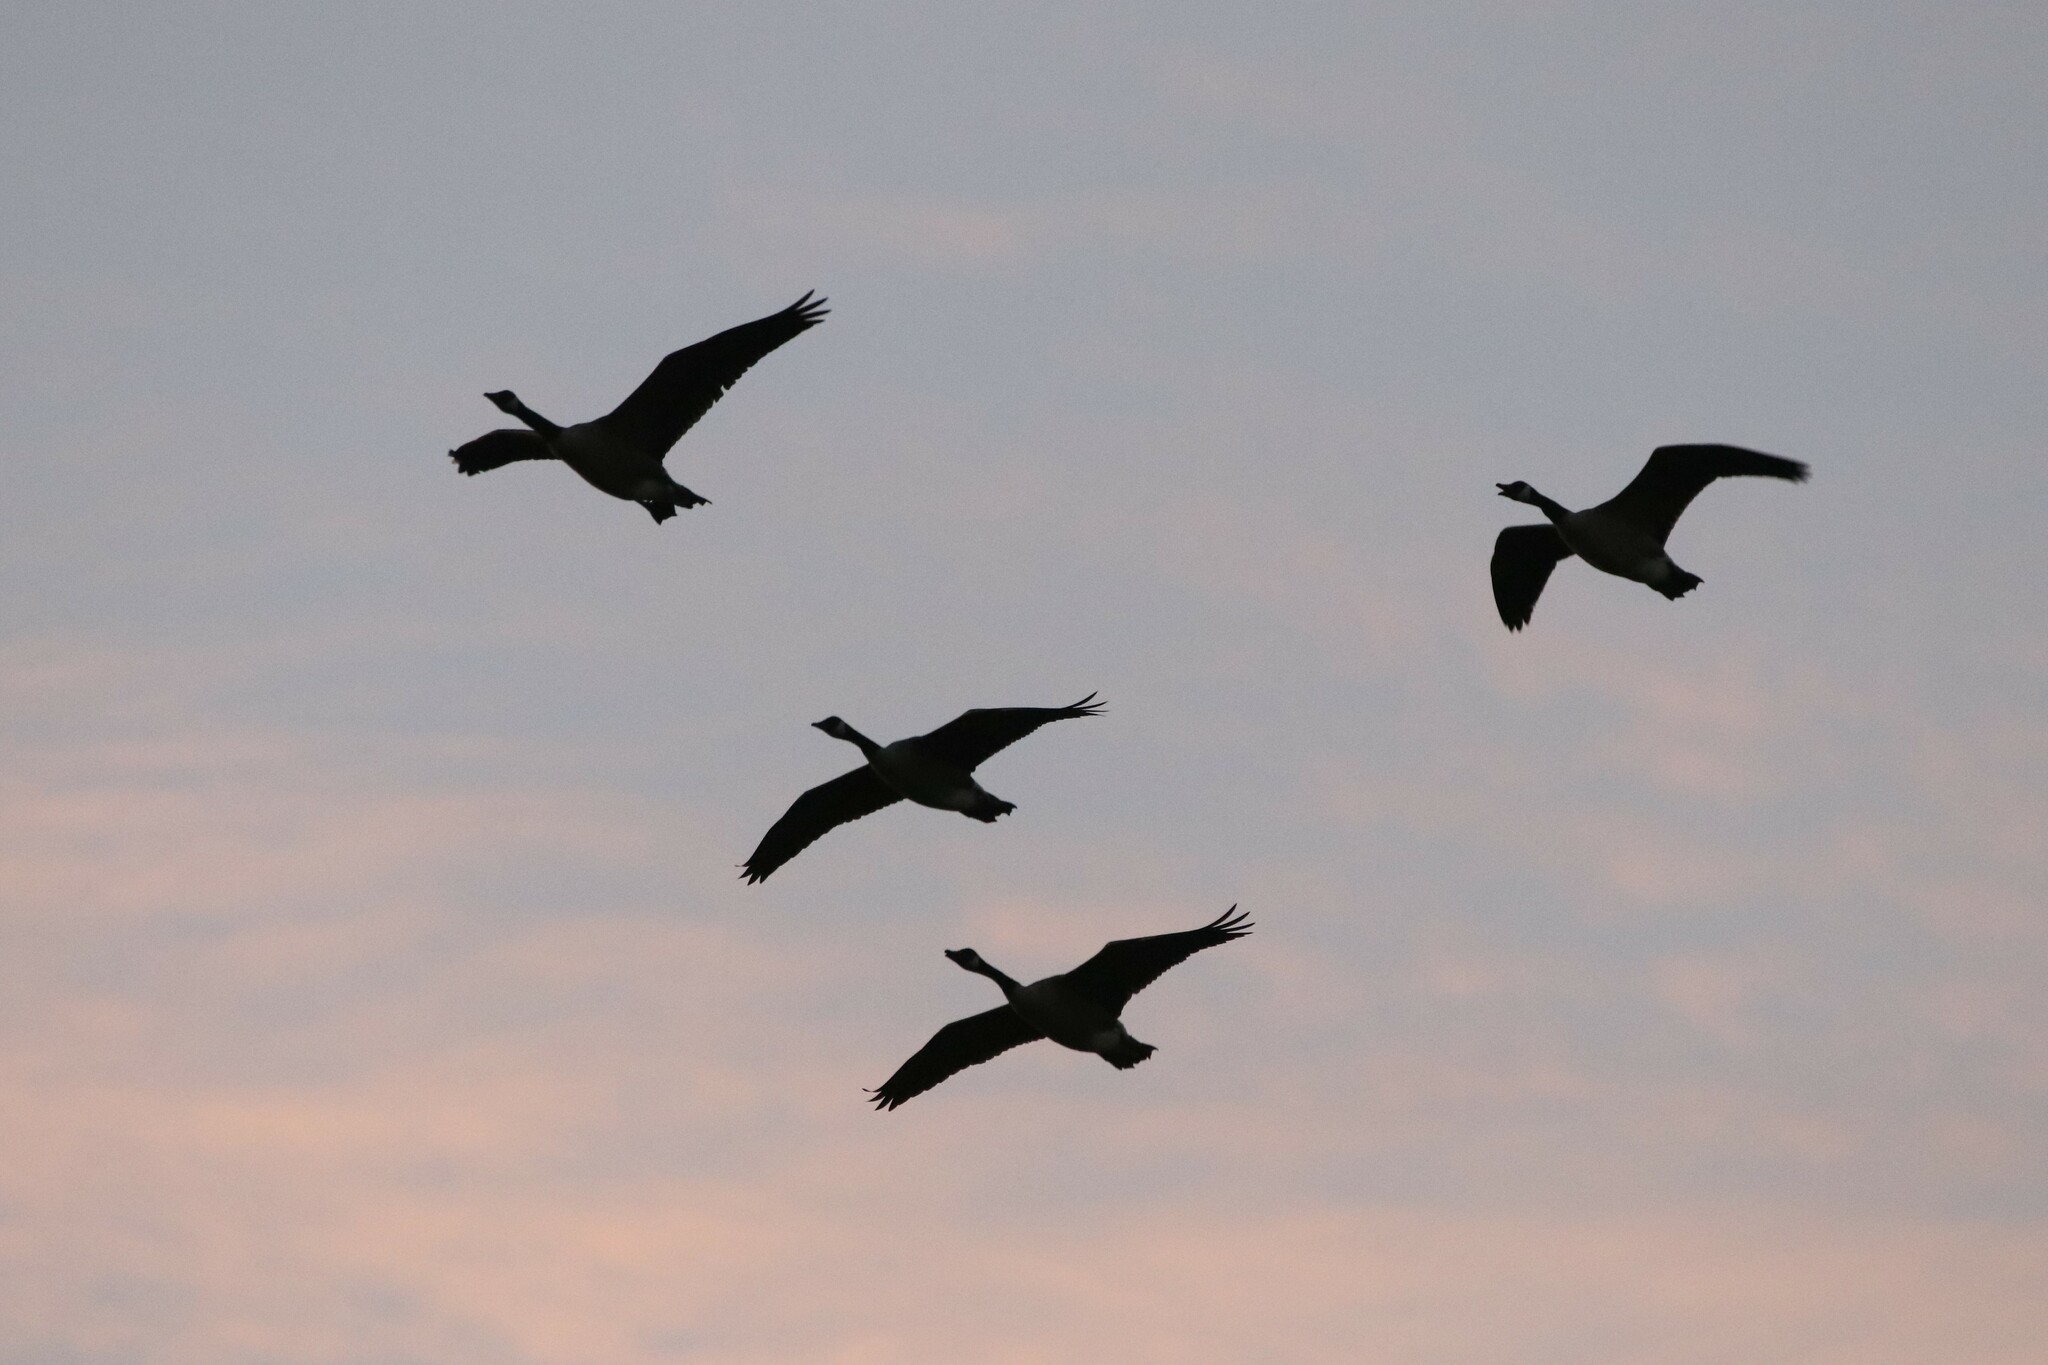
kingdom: Animalia
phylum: Chordata
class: Aves
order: Anseriformes
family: Anatidae
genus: Branta
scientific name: Branta canadensis
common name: Canada goose
